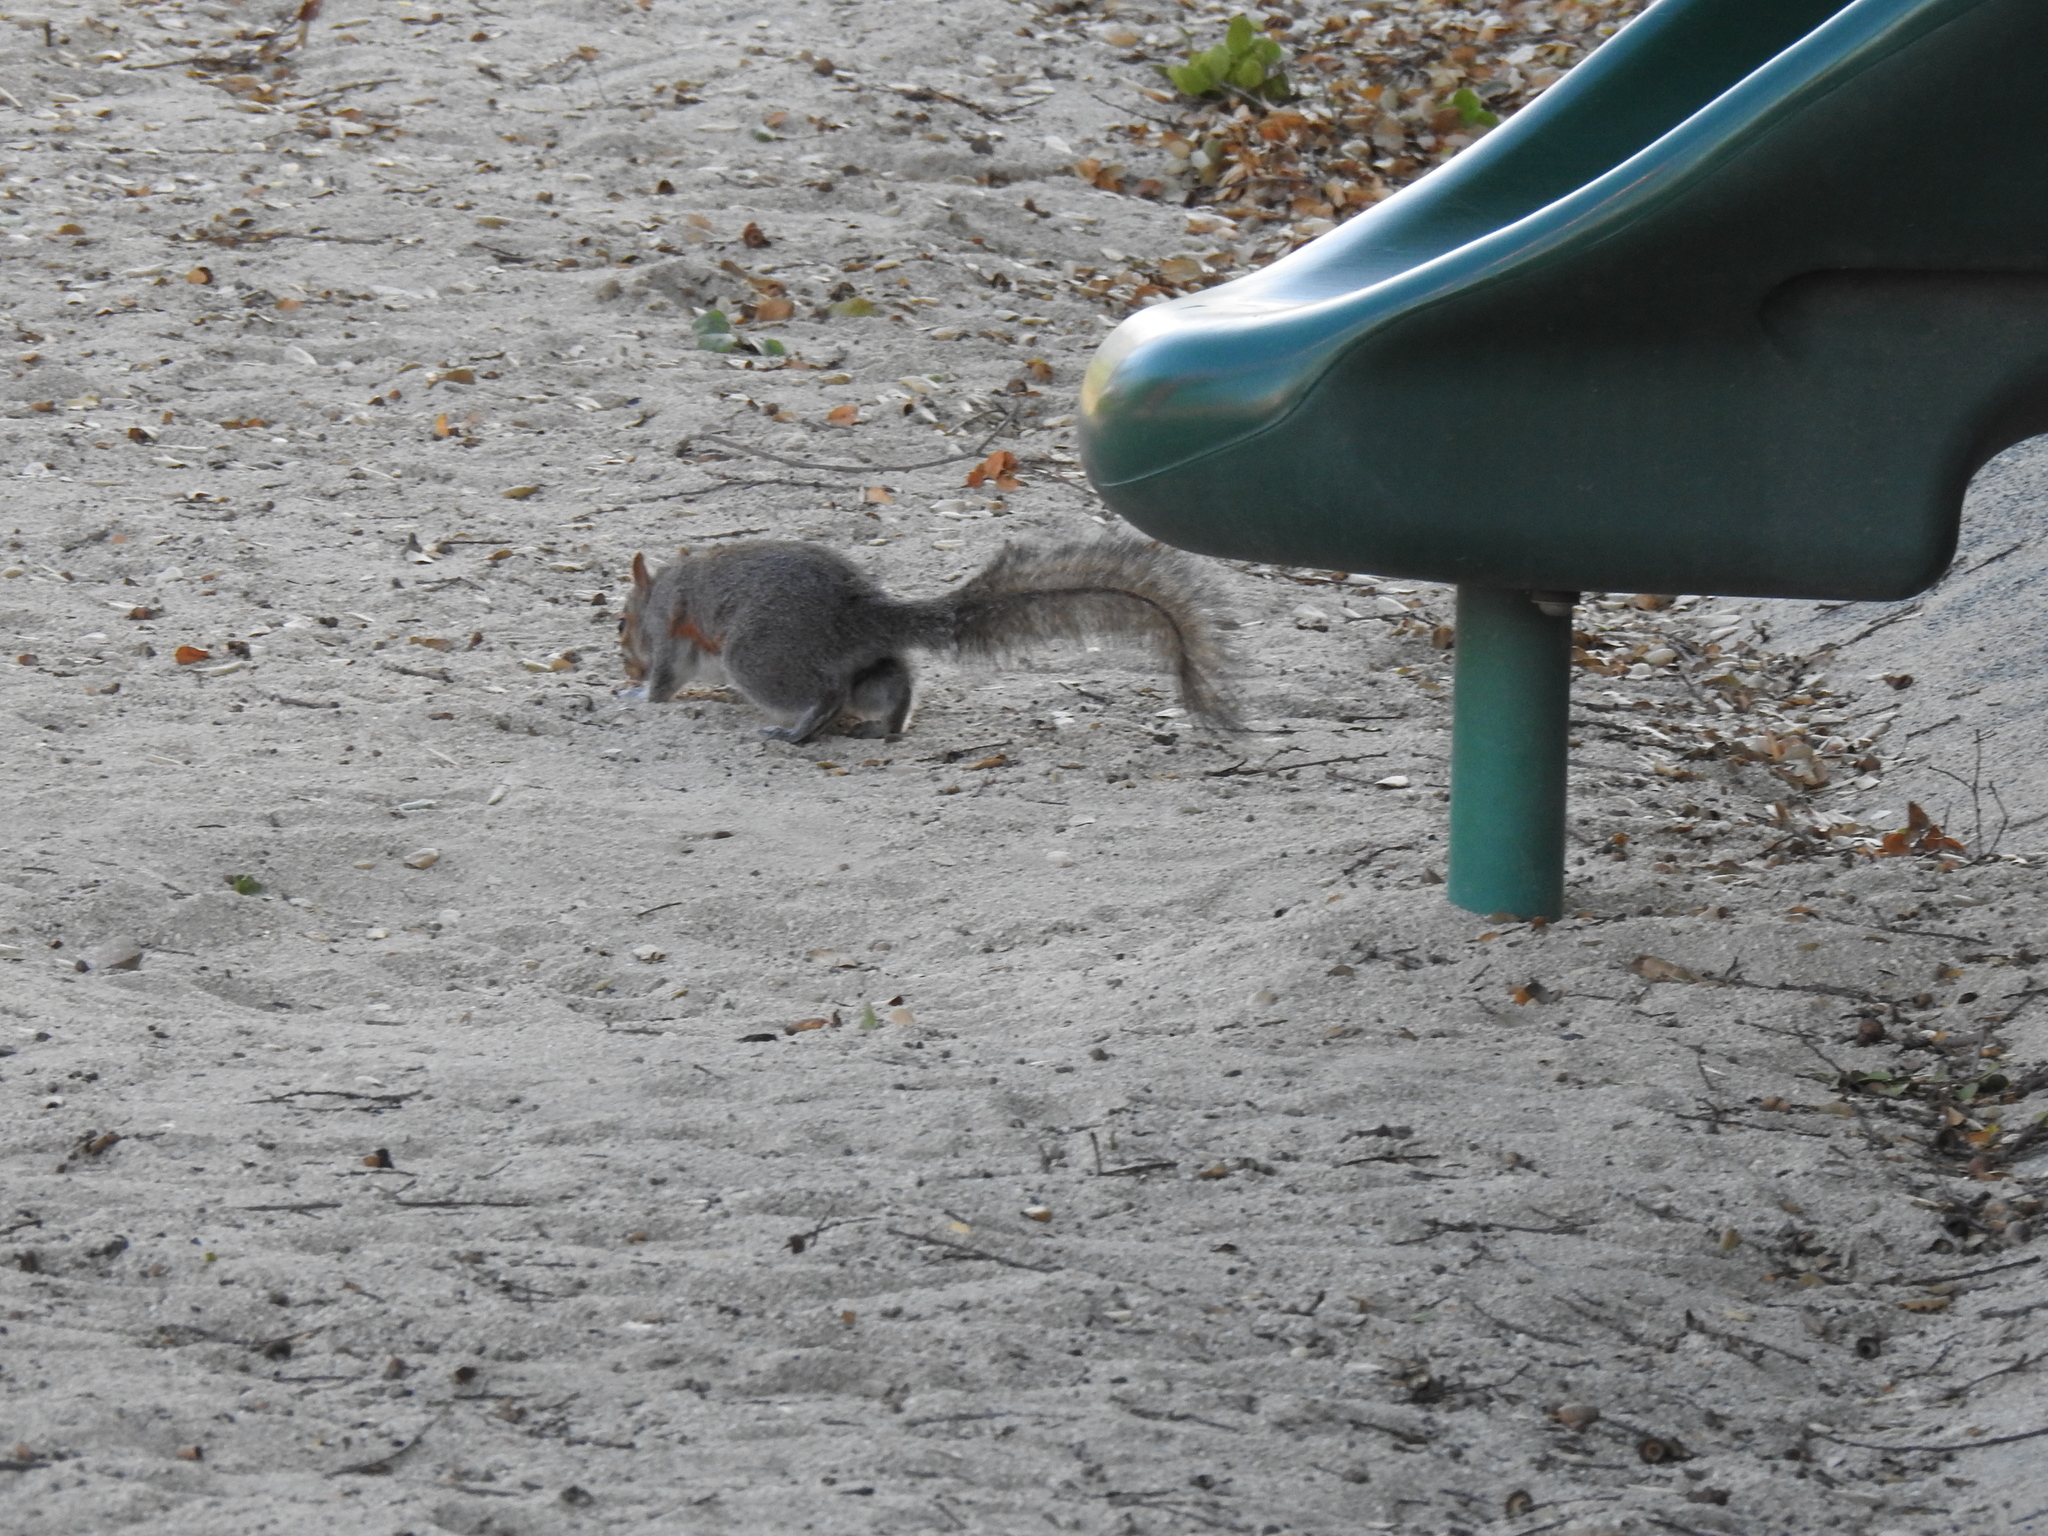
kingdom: Animalia
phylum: Chordata
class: Mammalia
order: Rodentia
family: Sciuridae
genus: Sciurus
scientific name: Sciurus carolinensis
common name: Eastern gray squirrel
